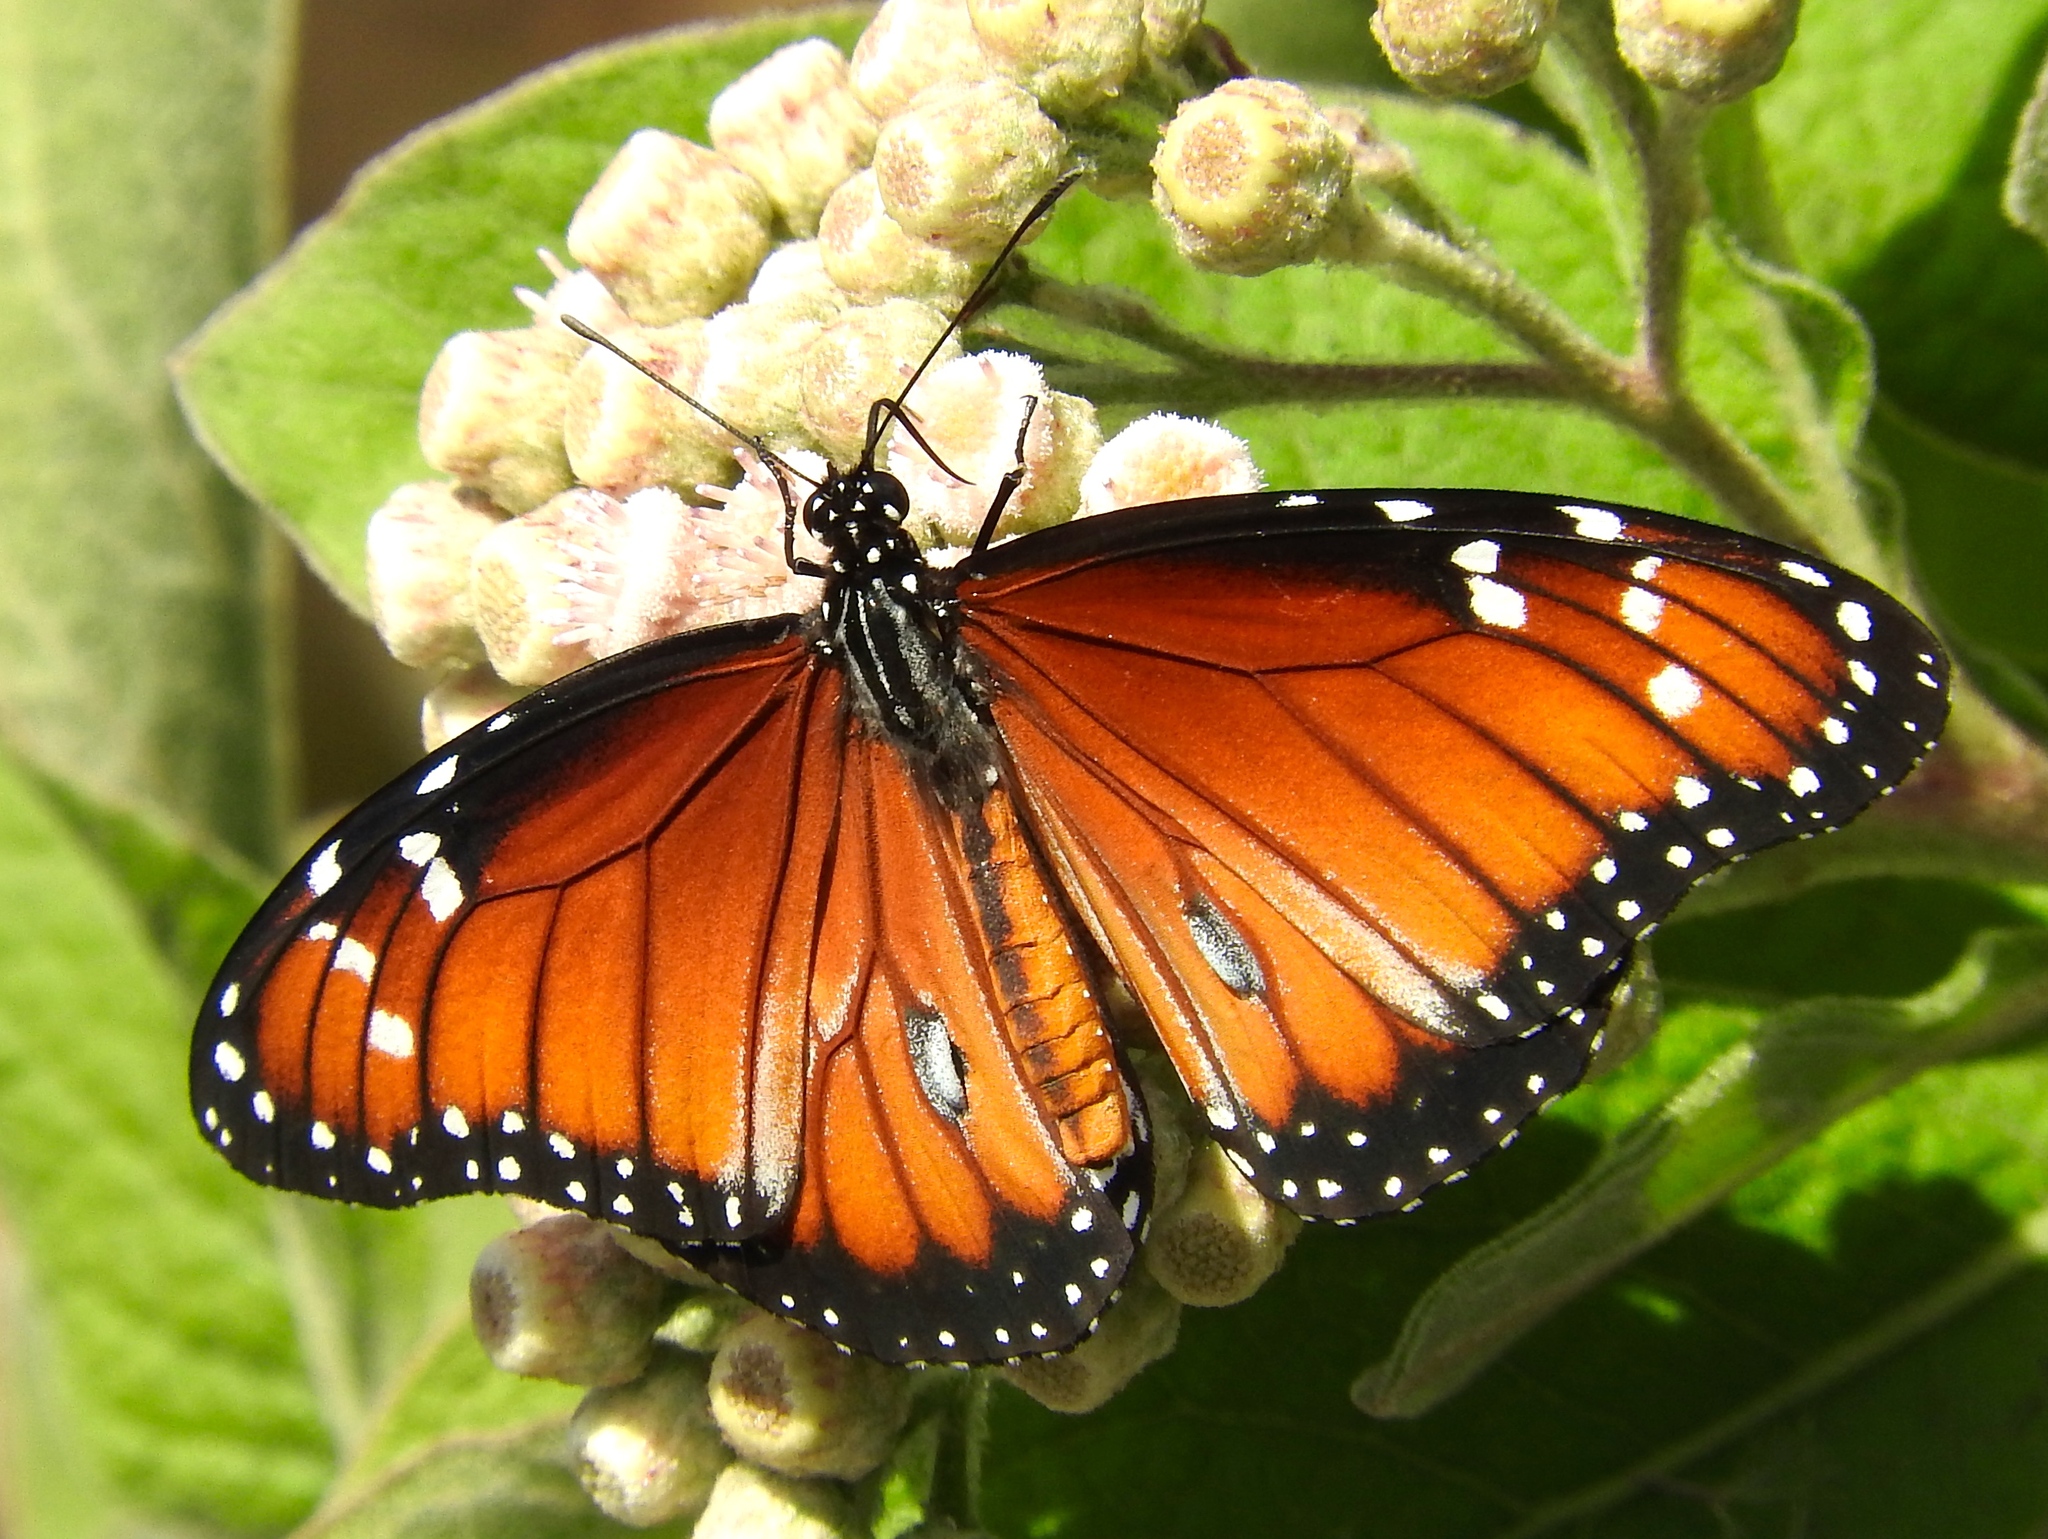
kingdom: Animalia
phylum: Arthropoda
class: Insecta
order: Lepidoptera
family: Nymphalidae
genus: Danaus
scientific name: Danaus eresimus
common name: Soldier
